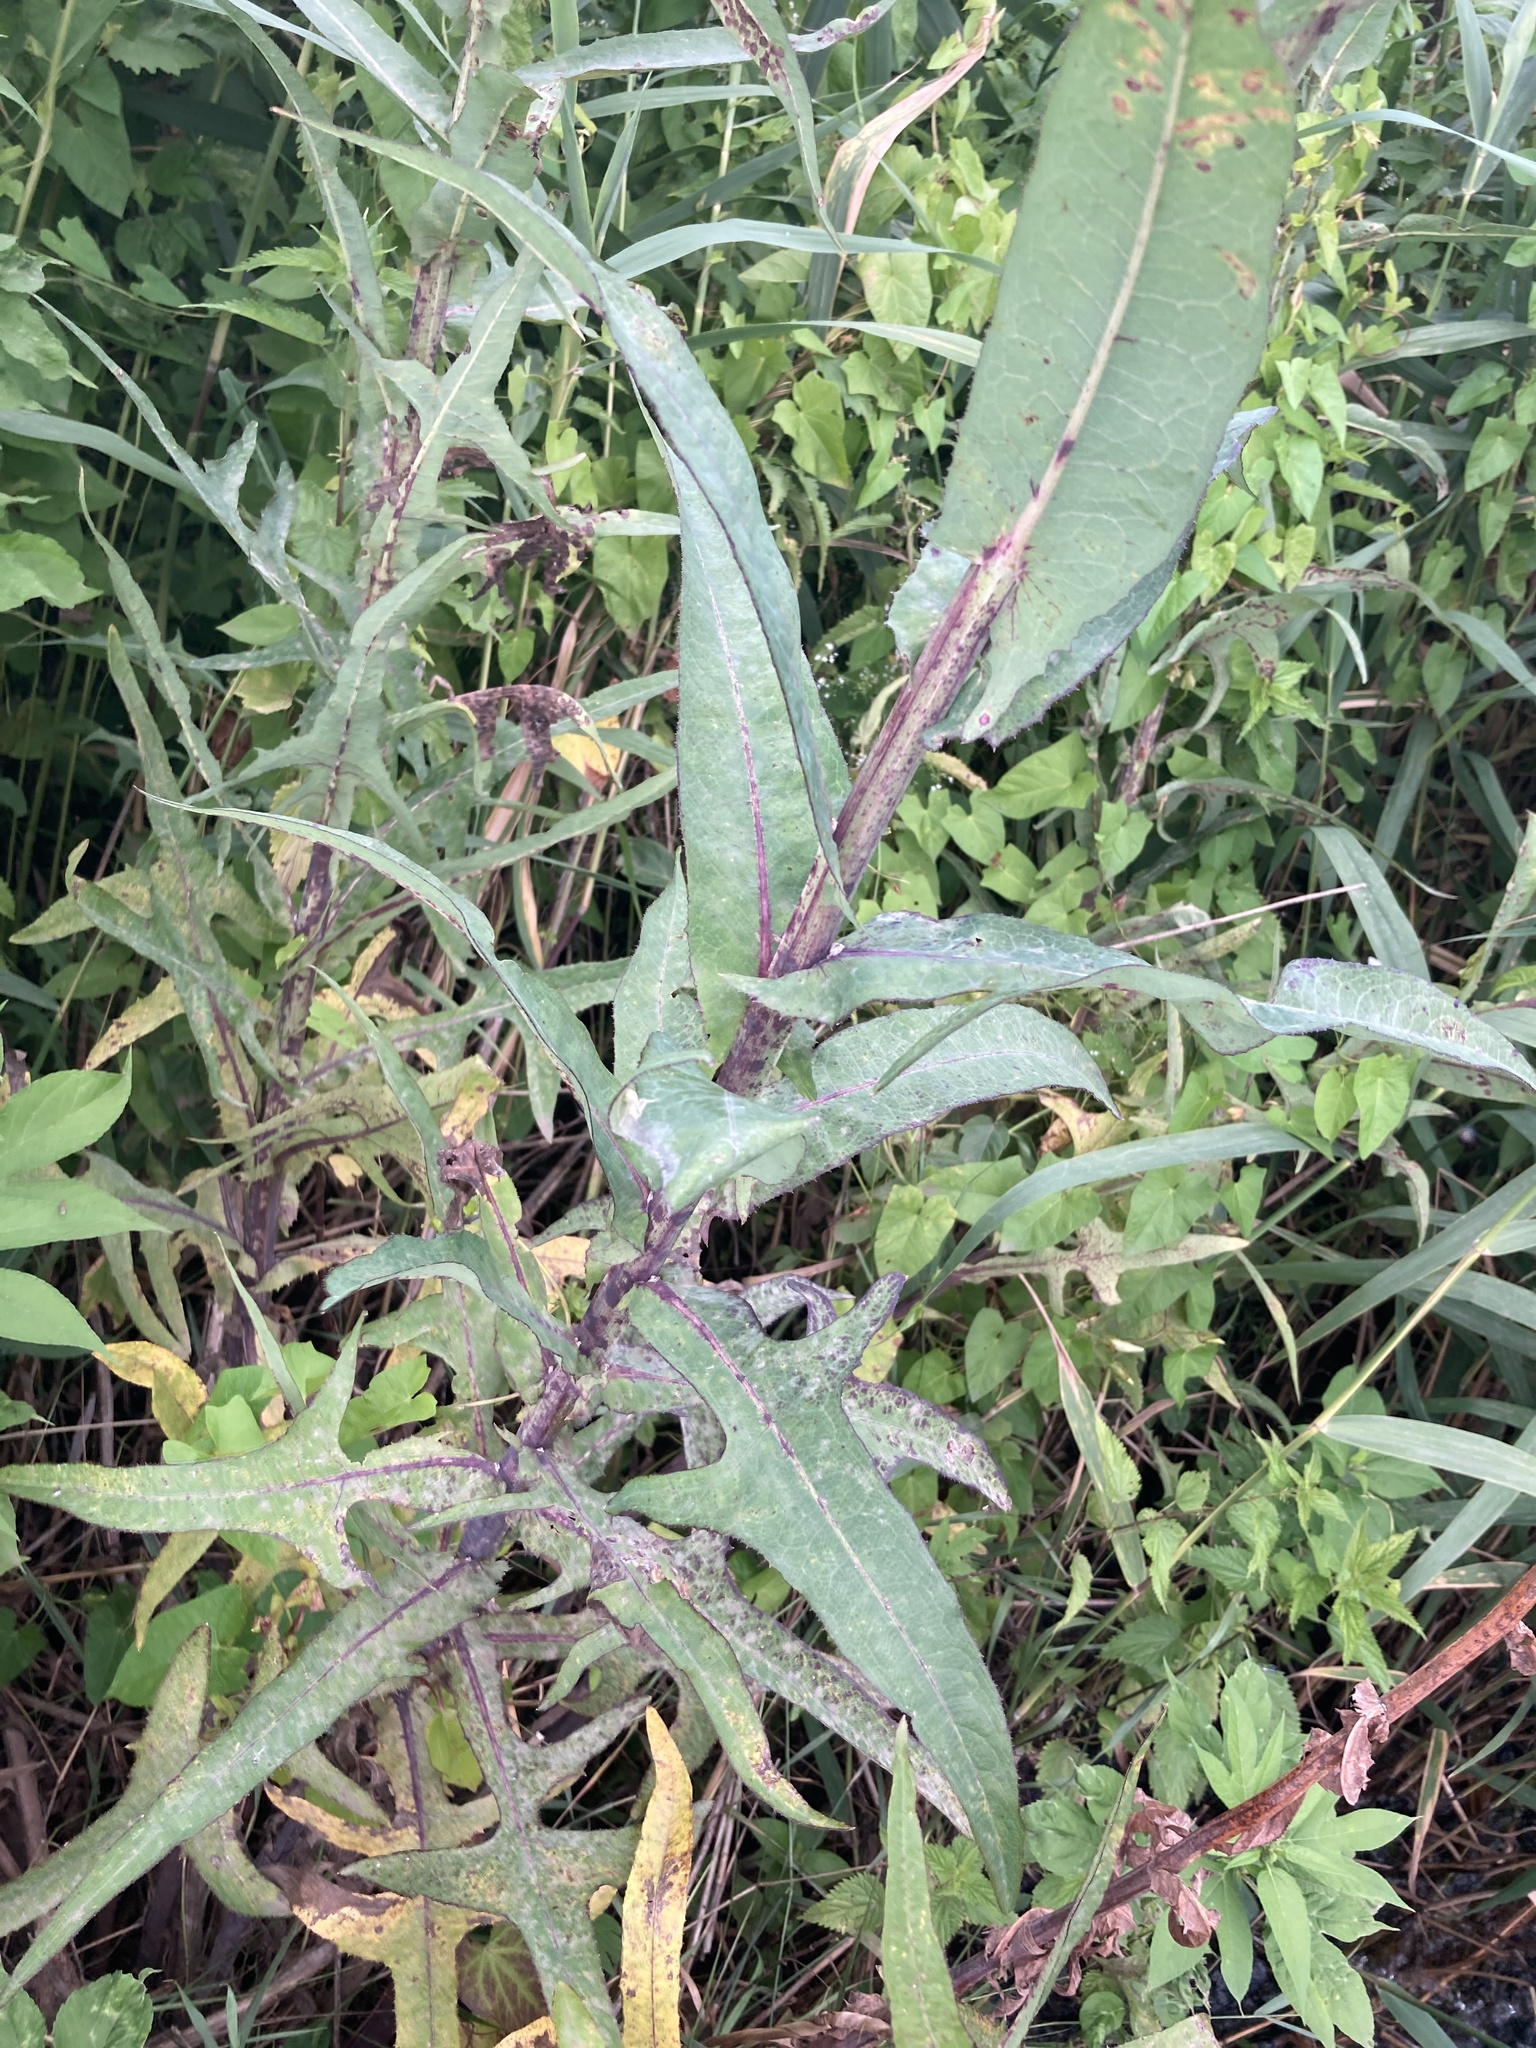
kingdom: Plantae
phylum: Tracheophyta
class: Magnoliopsida
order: Asterales
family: Asteraceae
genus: Sonchus
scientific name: Sonchus palustris
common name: Marsh sow-thistle
